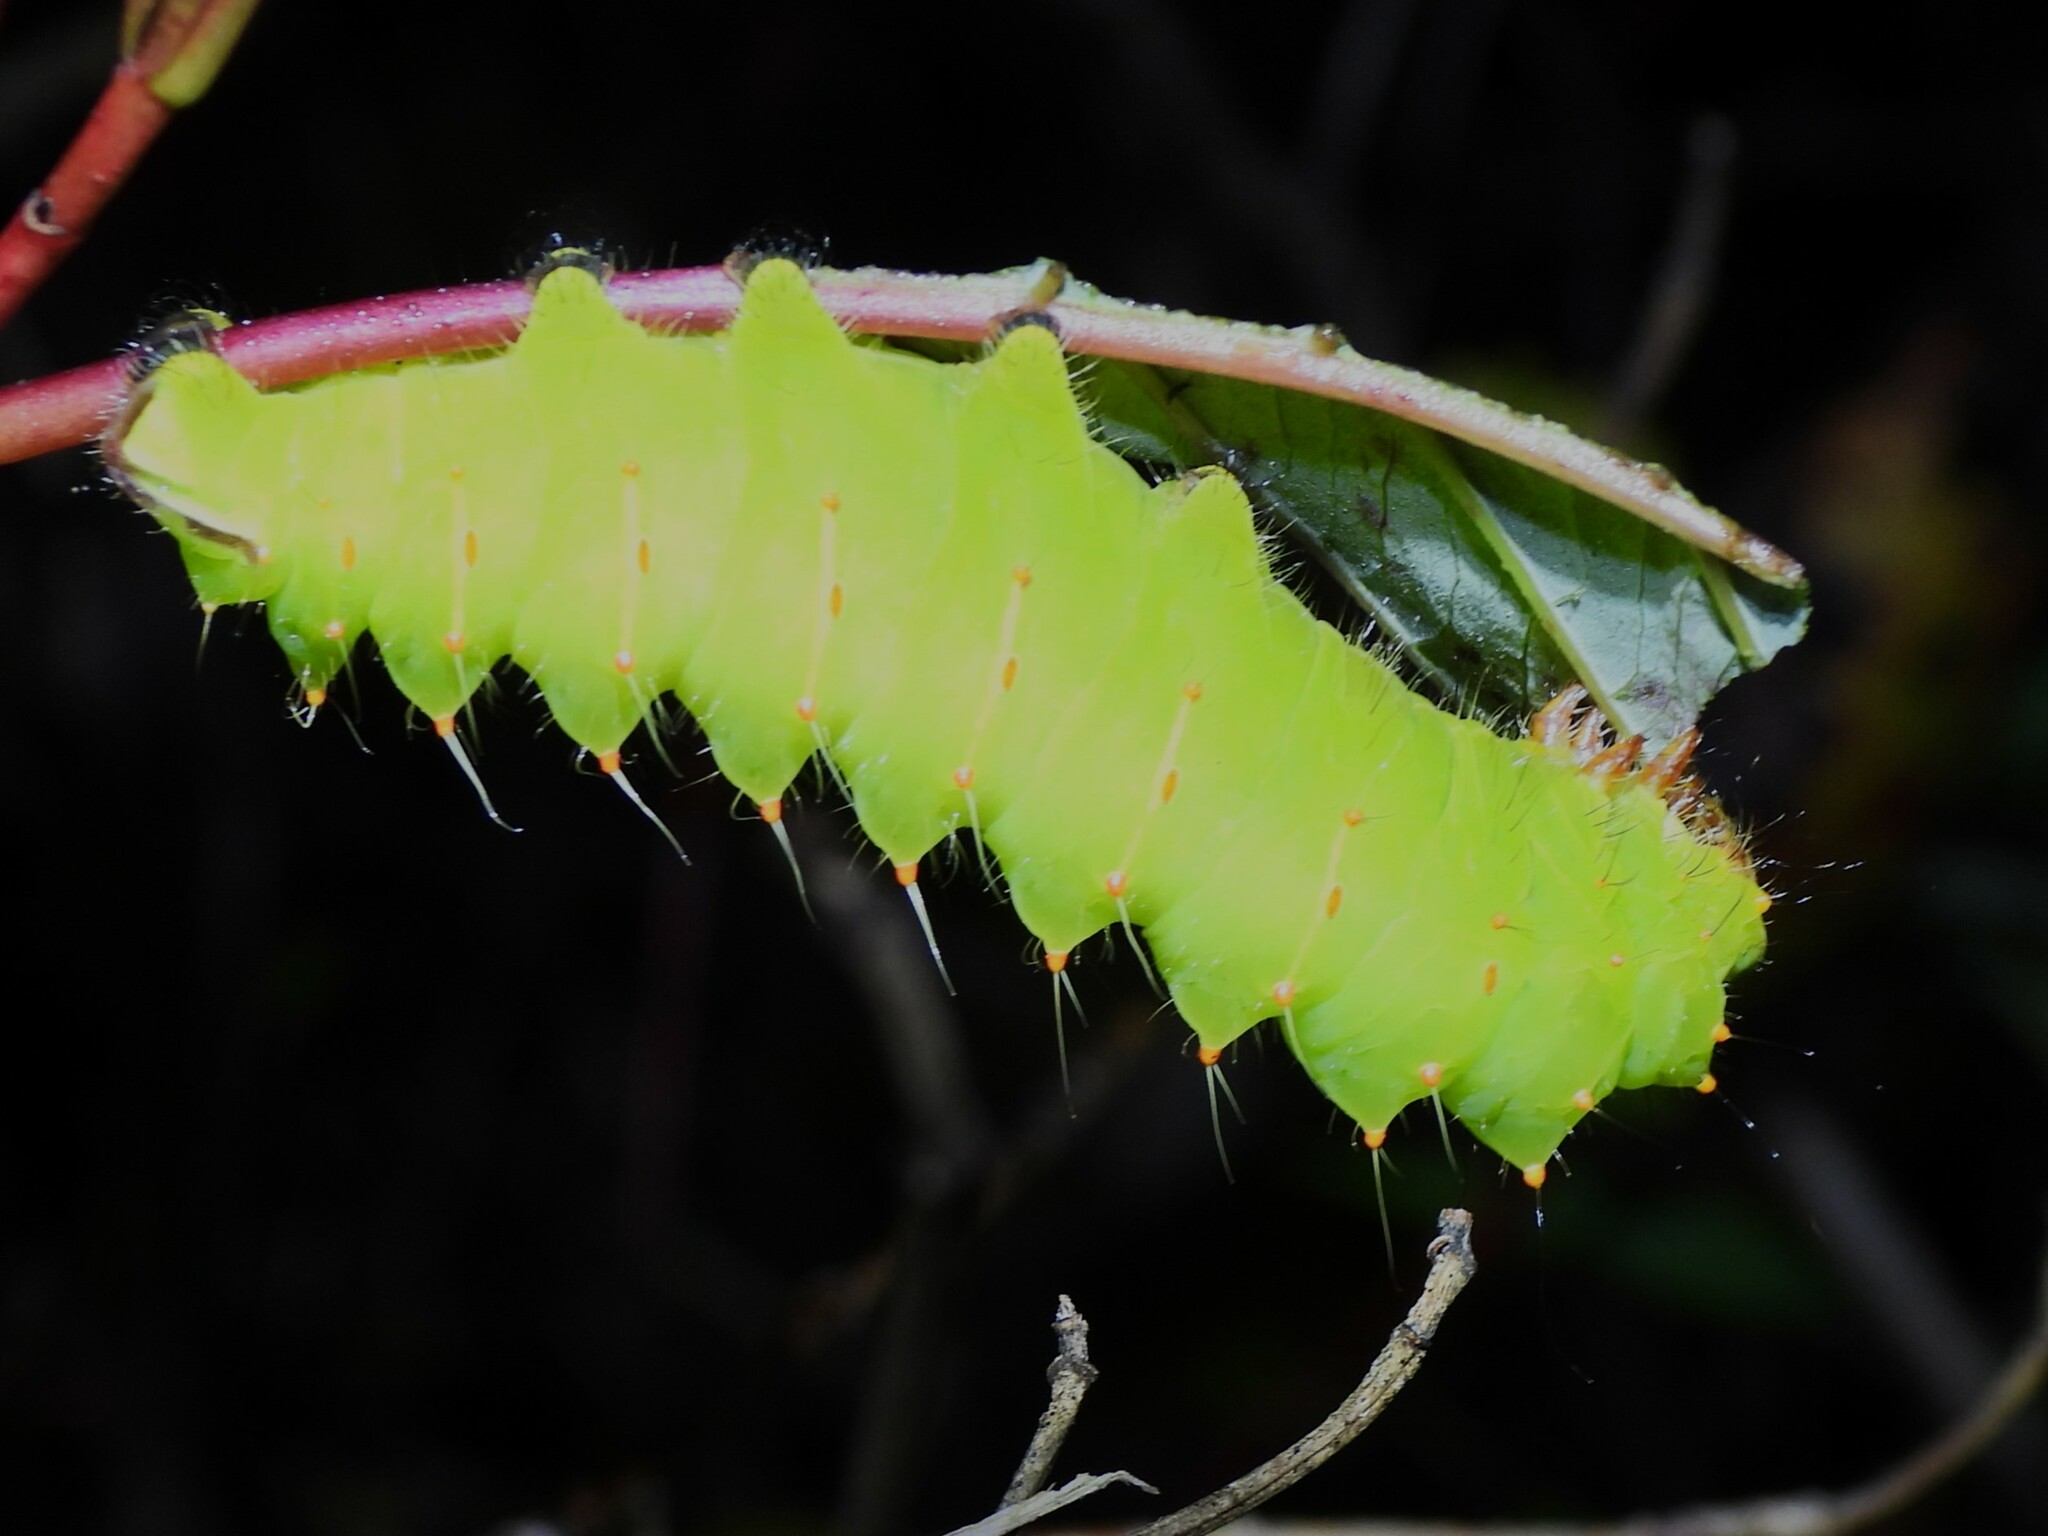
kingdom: Animalia
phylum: Arthropoda
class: Insecta
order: Lepidoptera
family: Saturniidae
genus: Antheraea
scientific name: Antheraea polyphemus
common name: Polyphemus moth
